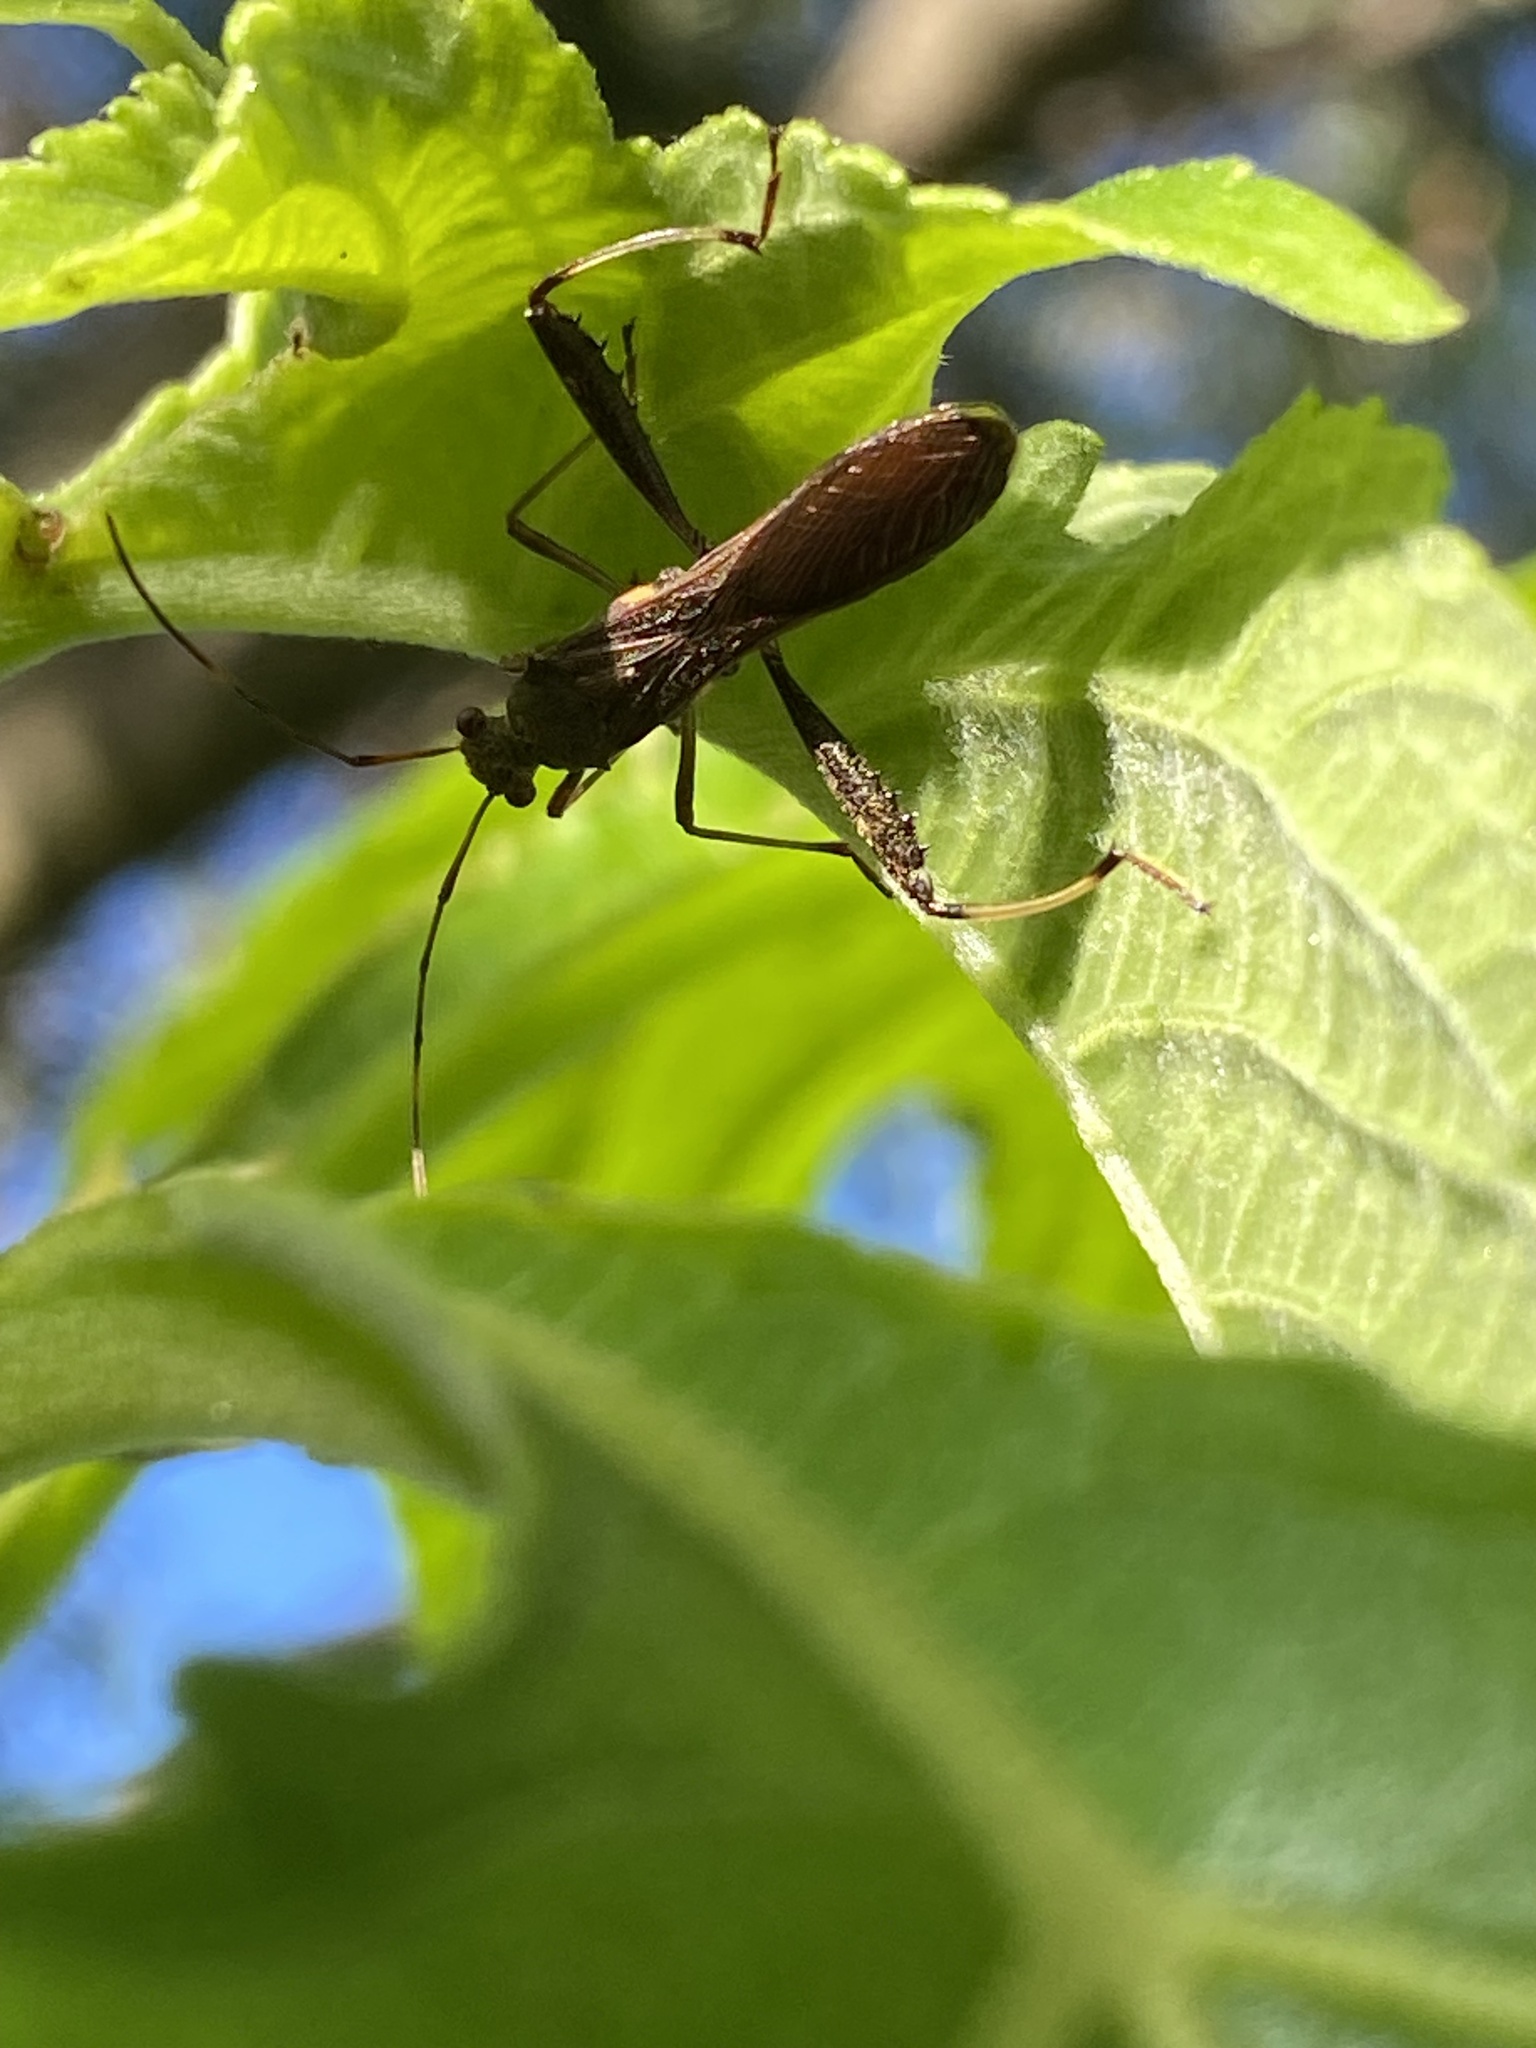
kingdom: Animalia
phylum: Arthropoda
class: Insecta
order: Hemiptera
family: Alydidae
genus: Riptortus
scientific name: Riptortus serripes
